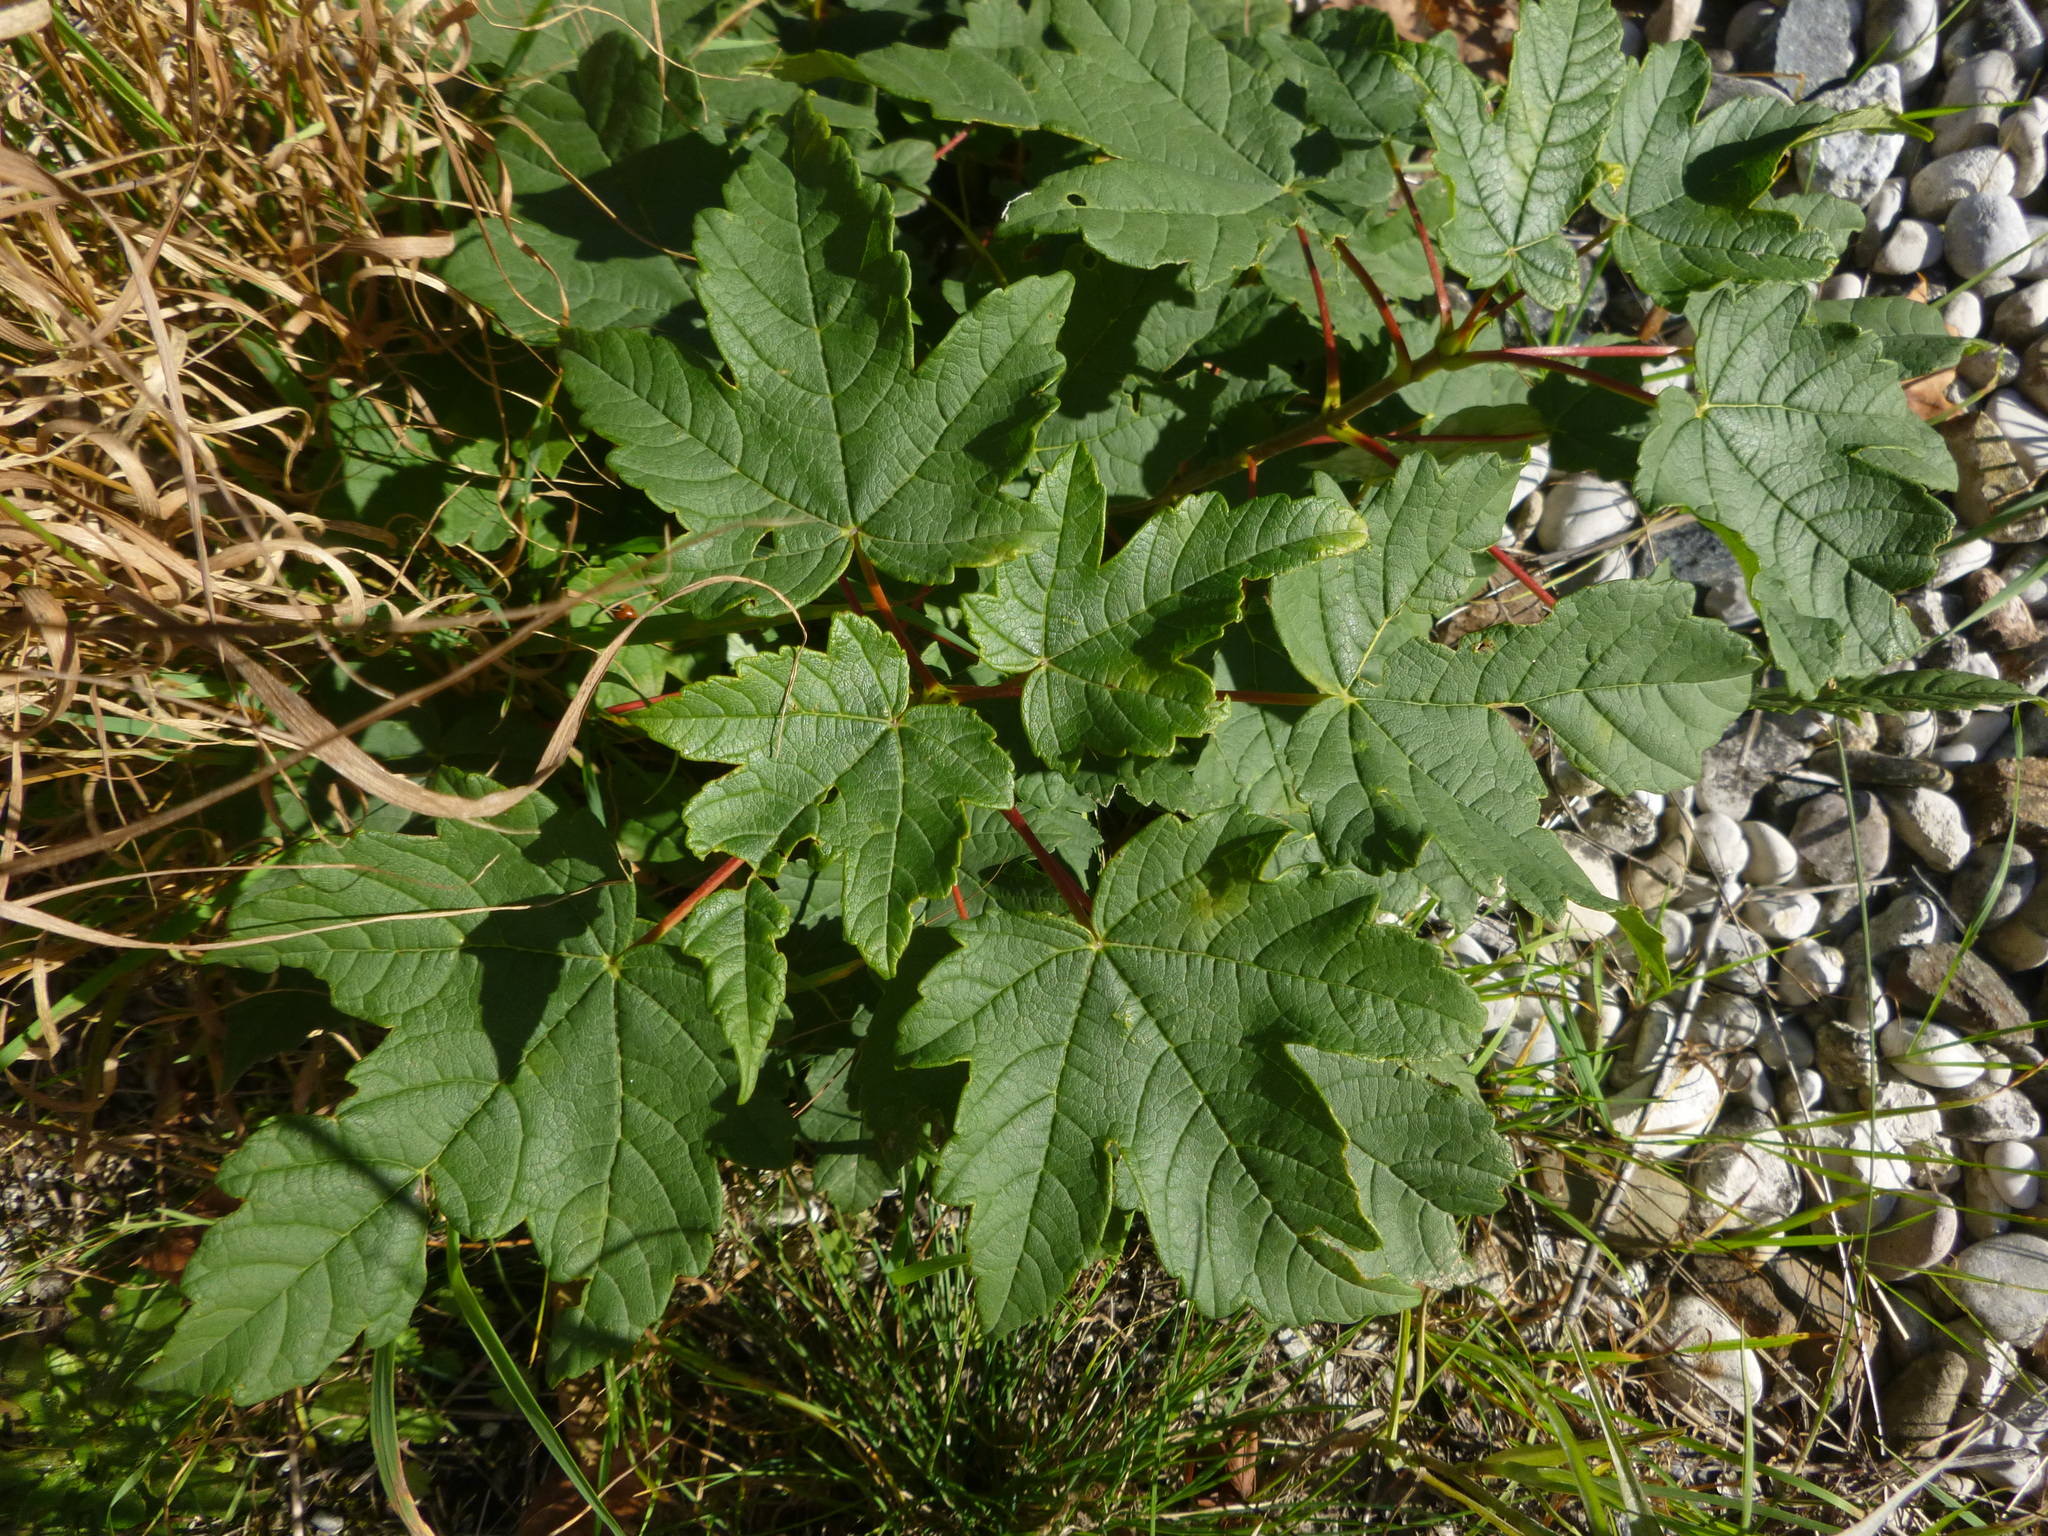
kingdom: Plantae
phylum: Tracheophyta
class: Magnoliopsida
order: Sapindales
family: Sapindaceae
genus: Acer
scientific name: Acer pseudoplatanus
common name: Sycamore
